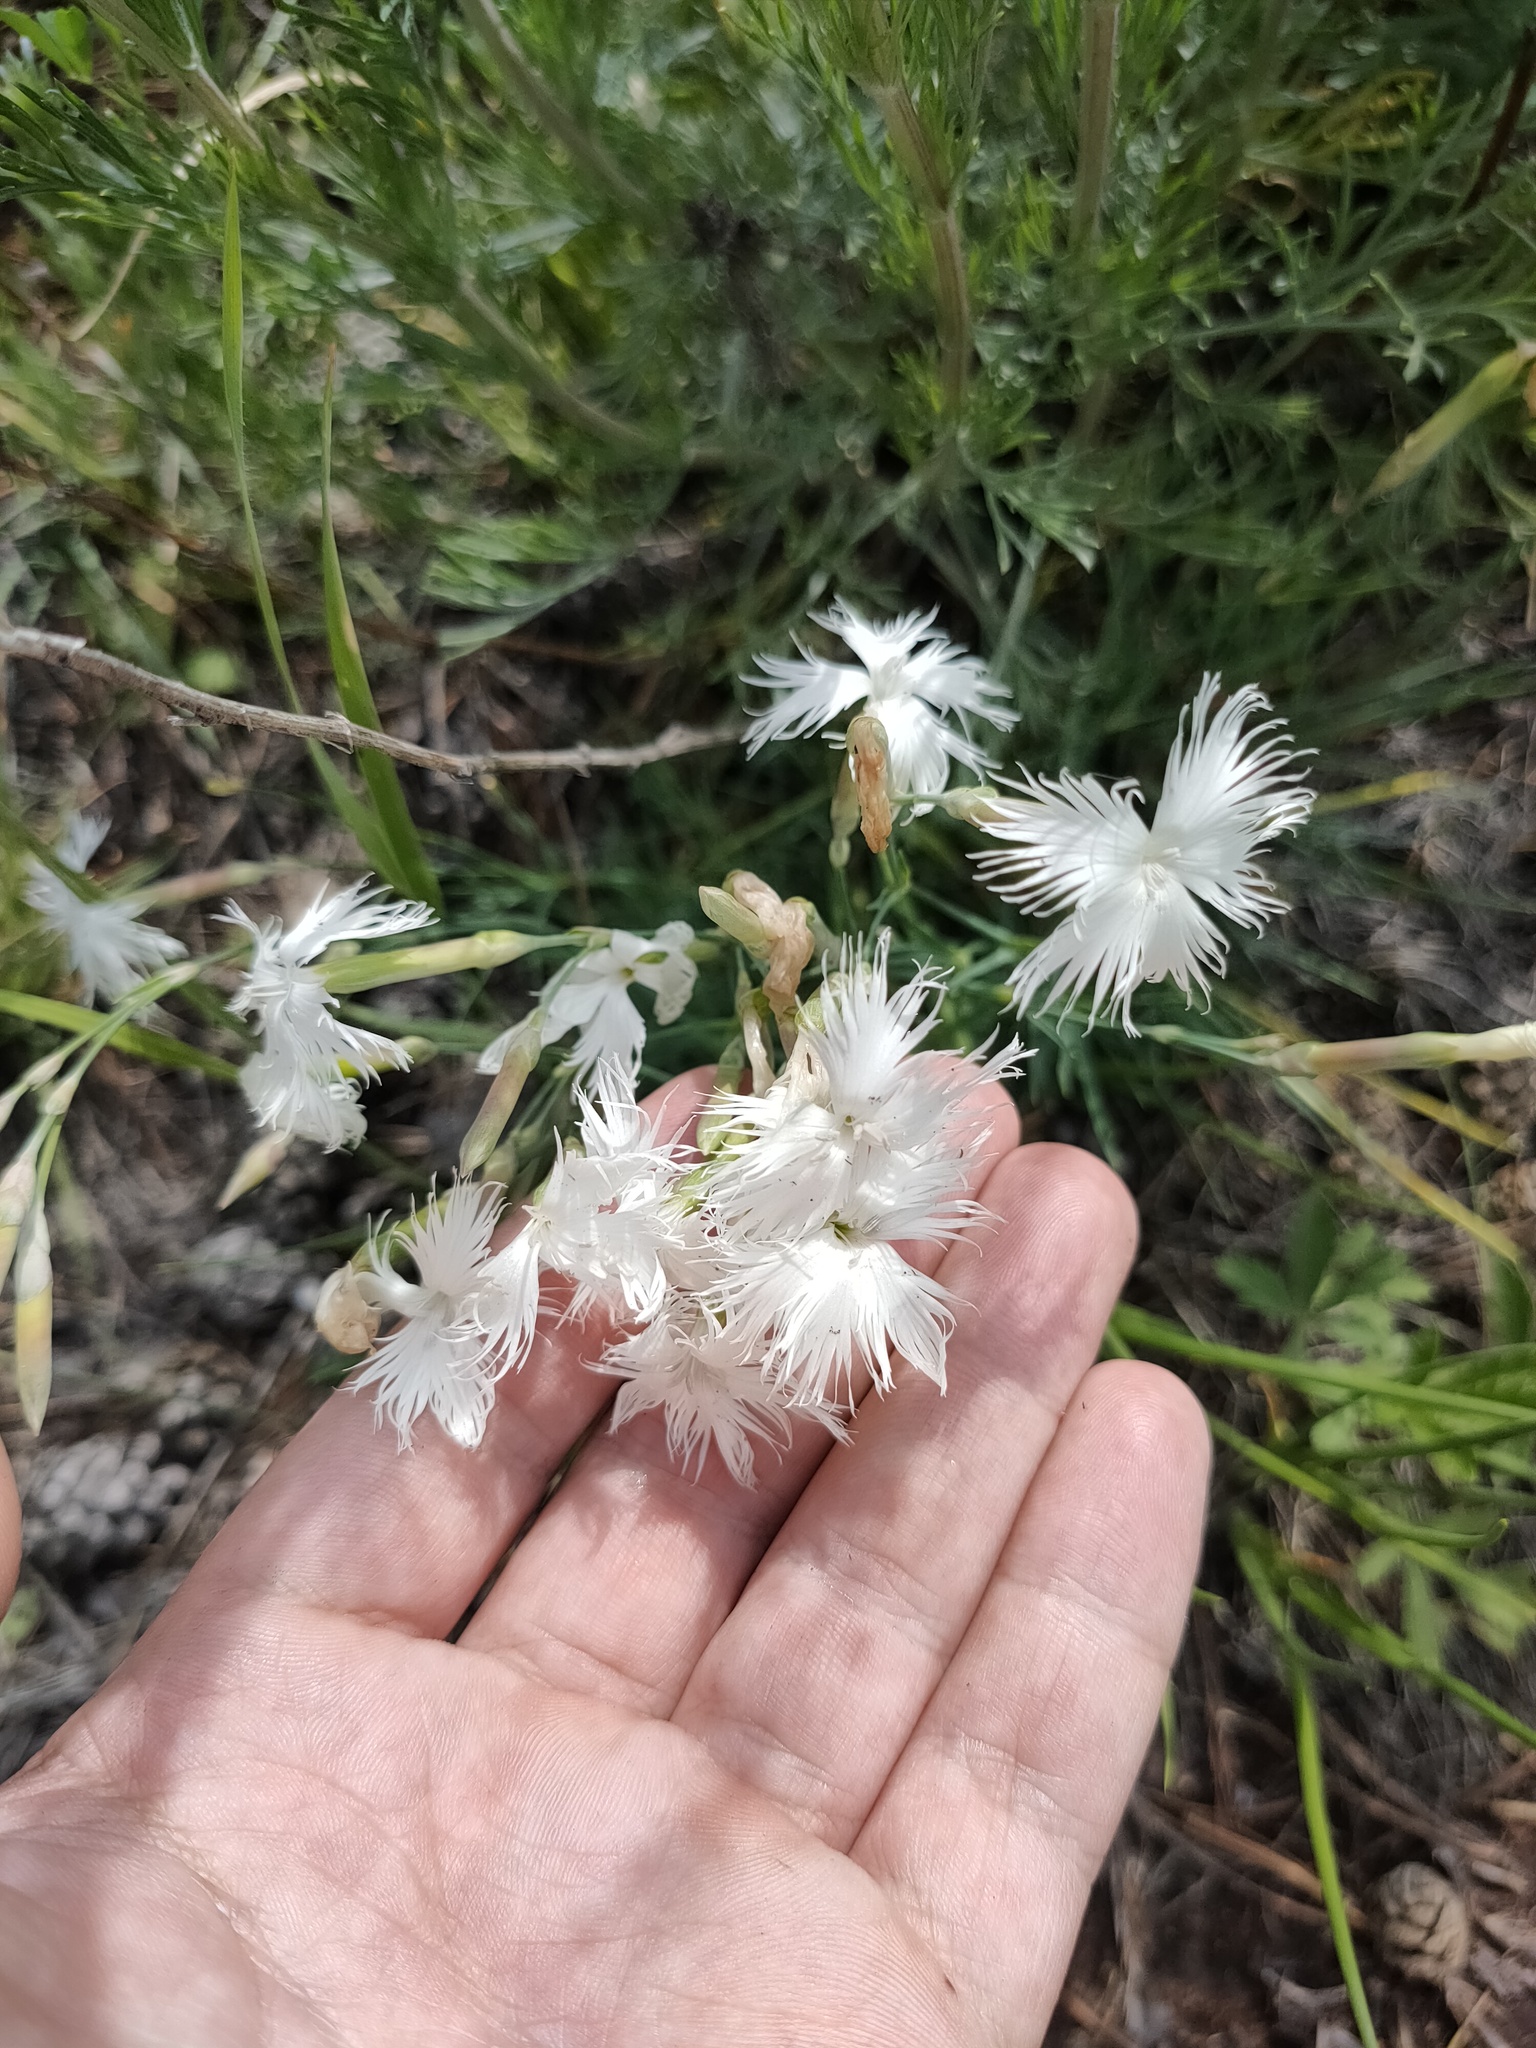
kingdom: Plantae
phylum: Tracheophyta
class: Magnoliopsida
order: Caryophyllales
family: Caryophyllaceae
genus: Dianthus
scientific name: Dianthus acicularis
